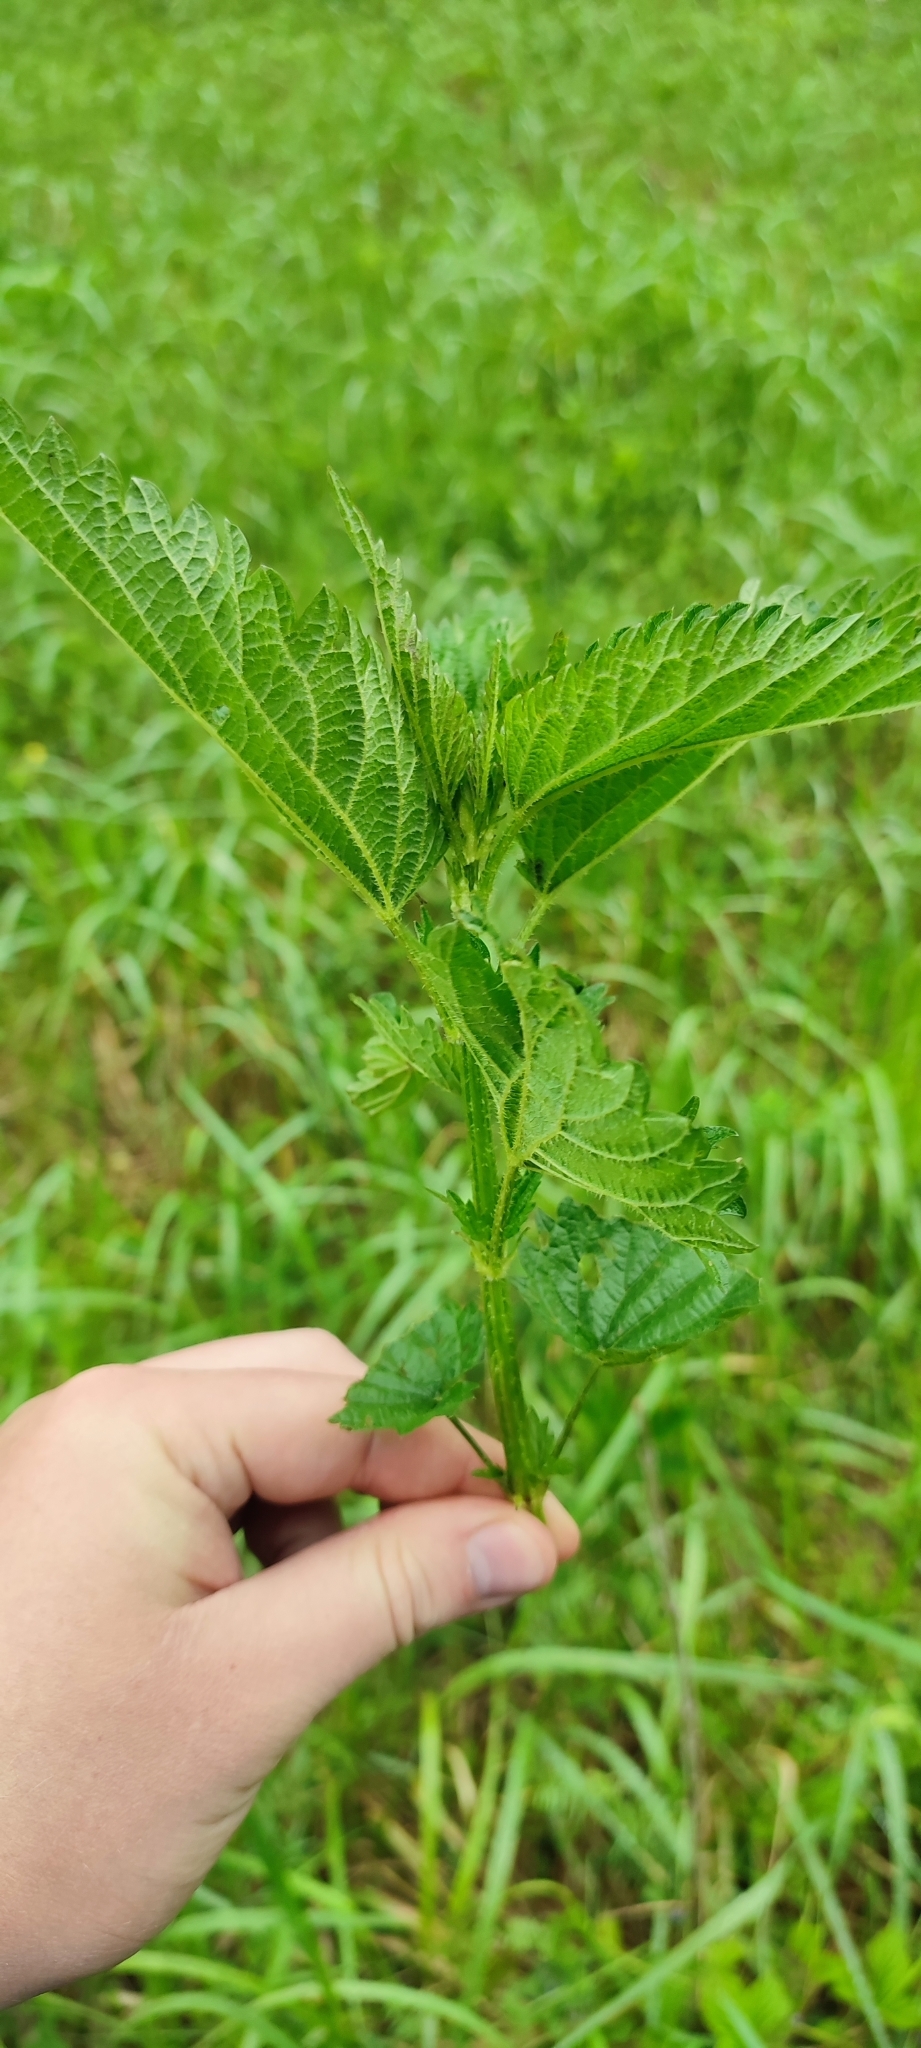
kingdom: Plantae
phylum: Tracheophyta
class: Magnoliopsida
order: Rosales
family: Urticaceae
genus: Urtica
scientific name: Urtica dioica
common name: Common nettle
